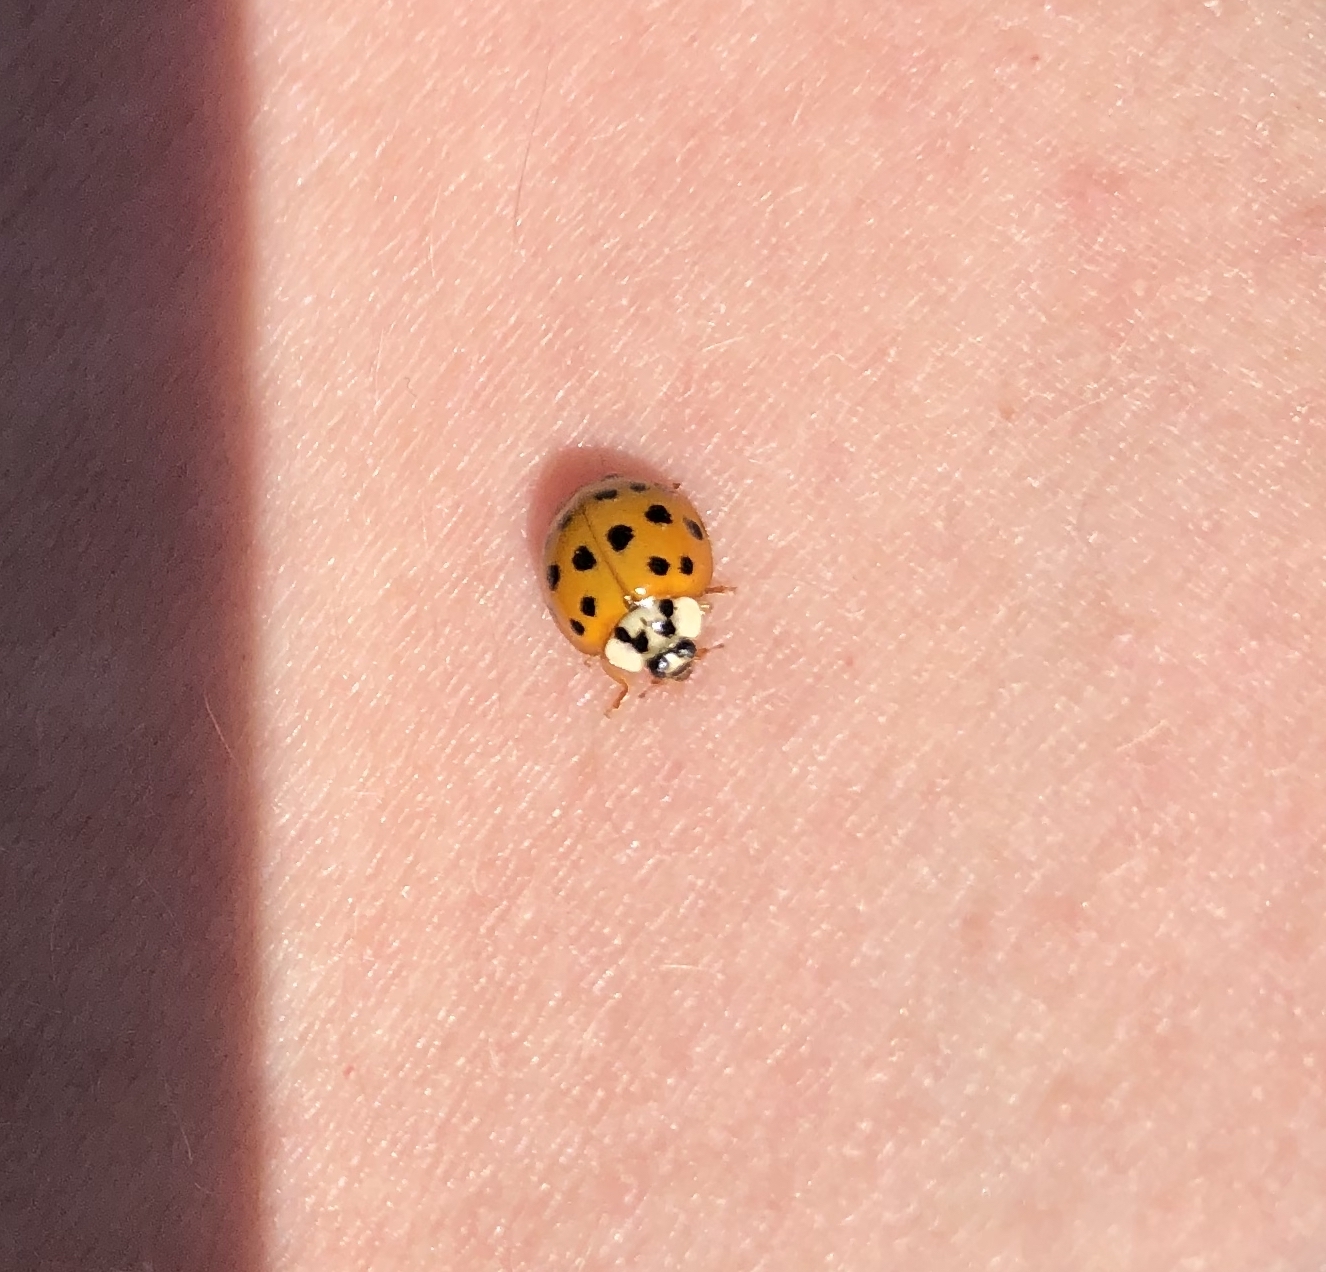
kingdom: Animalia
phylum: Arthropoda
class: Insecta
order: Coleoptera
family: Coccinellidae
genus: Harmonia
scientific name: Harmonia axyridis
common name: Harlequin ladybird
